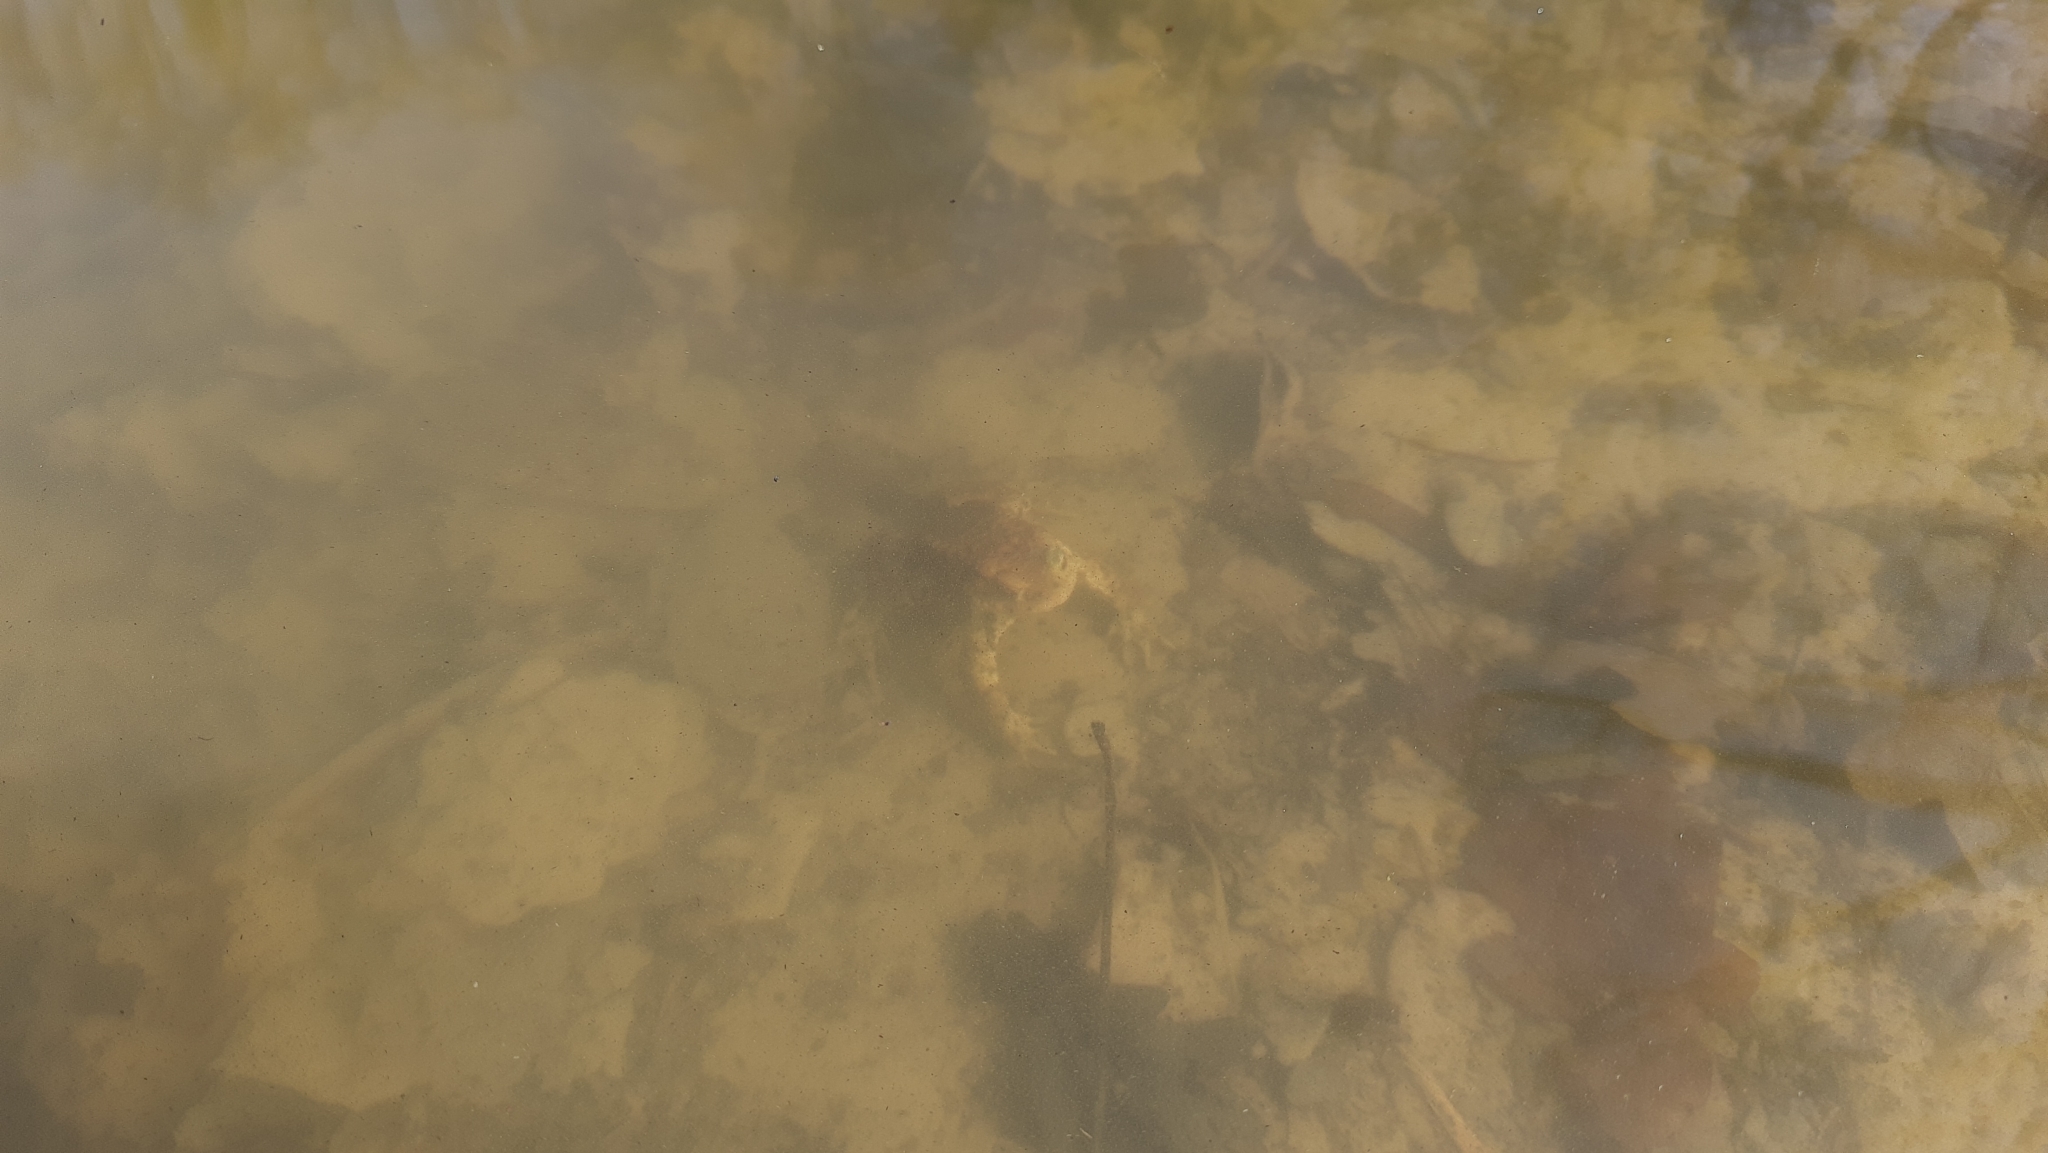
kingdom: Animalia
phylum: Chordata
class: Amphibia
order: Anura
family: Bufonidae
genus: Bufo
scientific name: Bufo bufo
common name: Common toad
